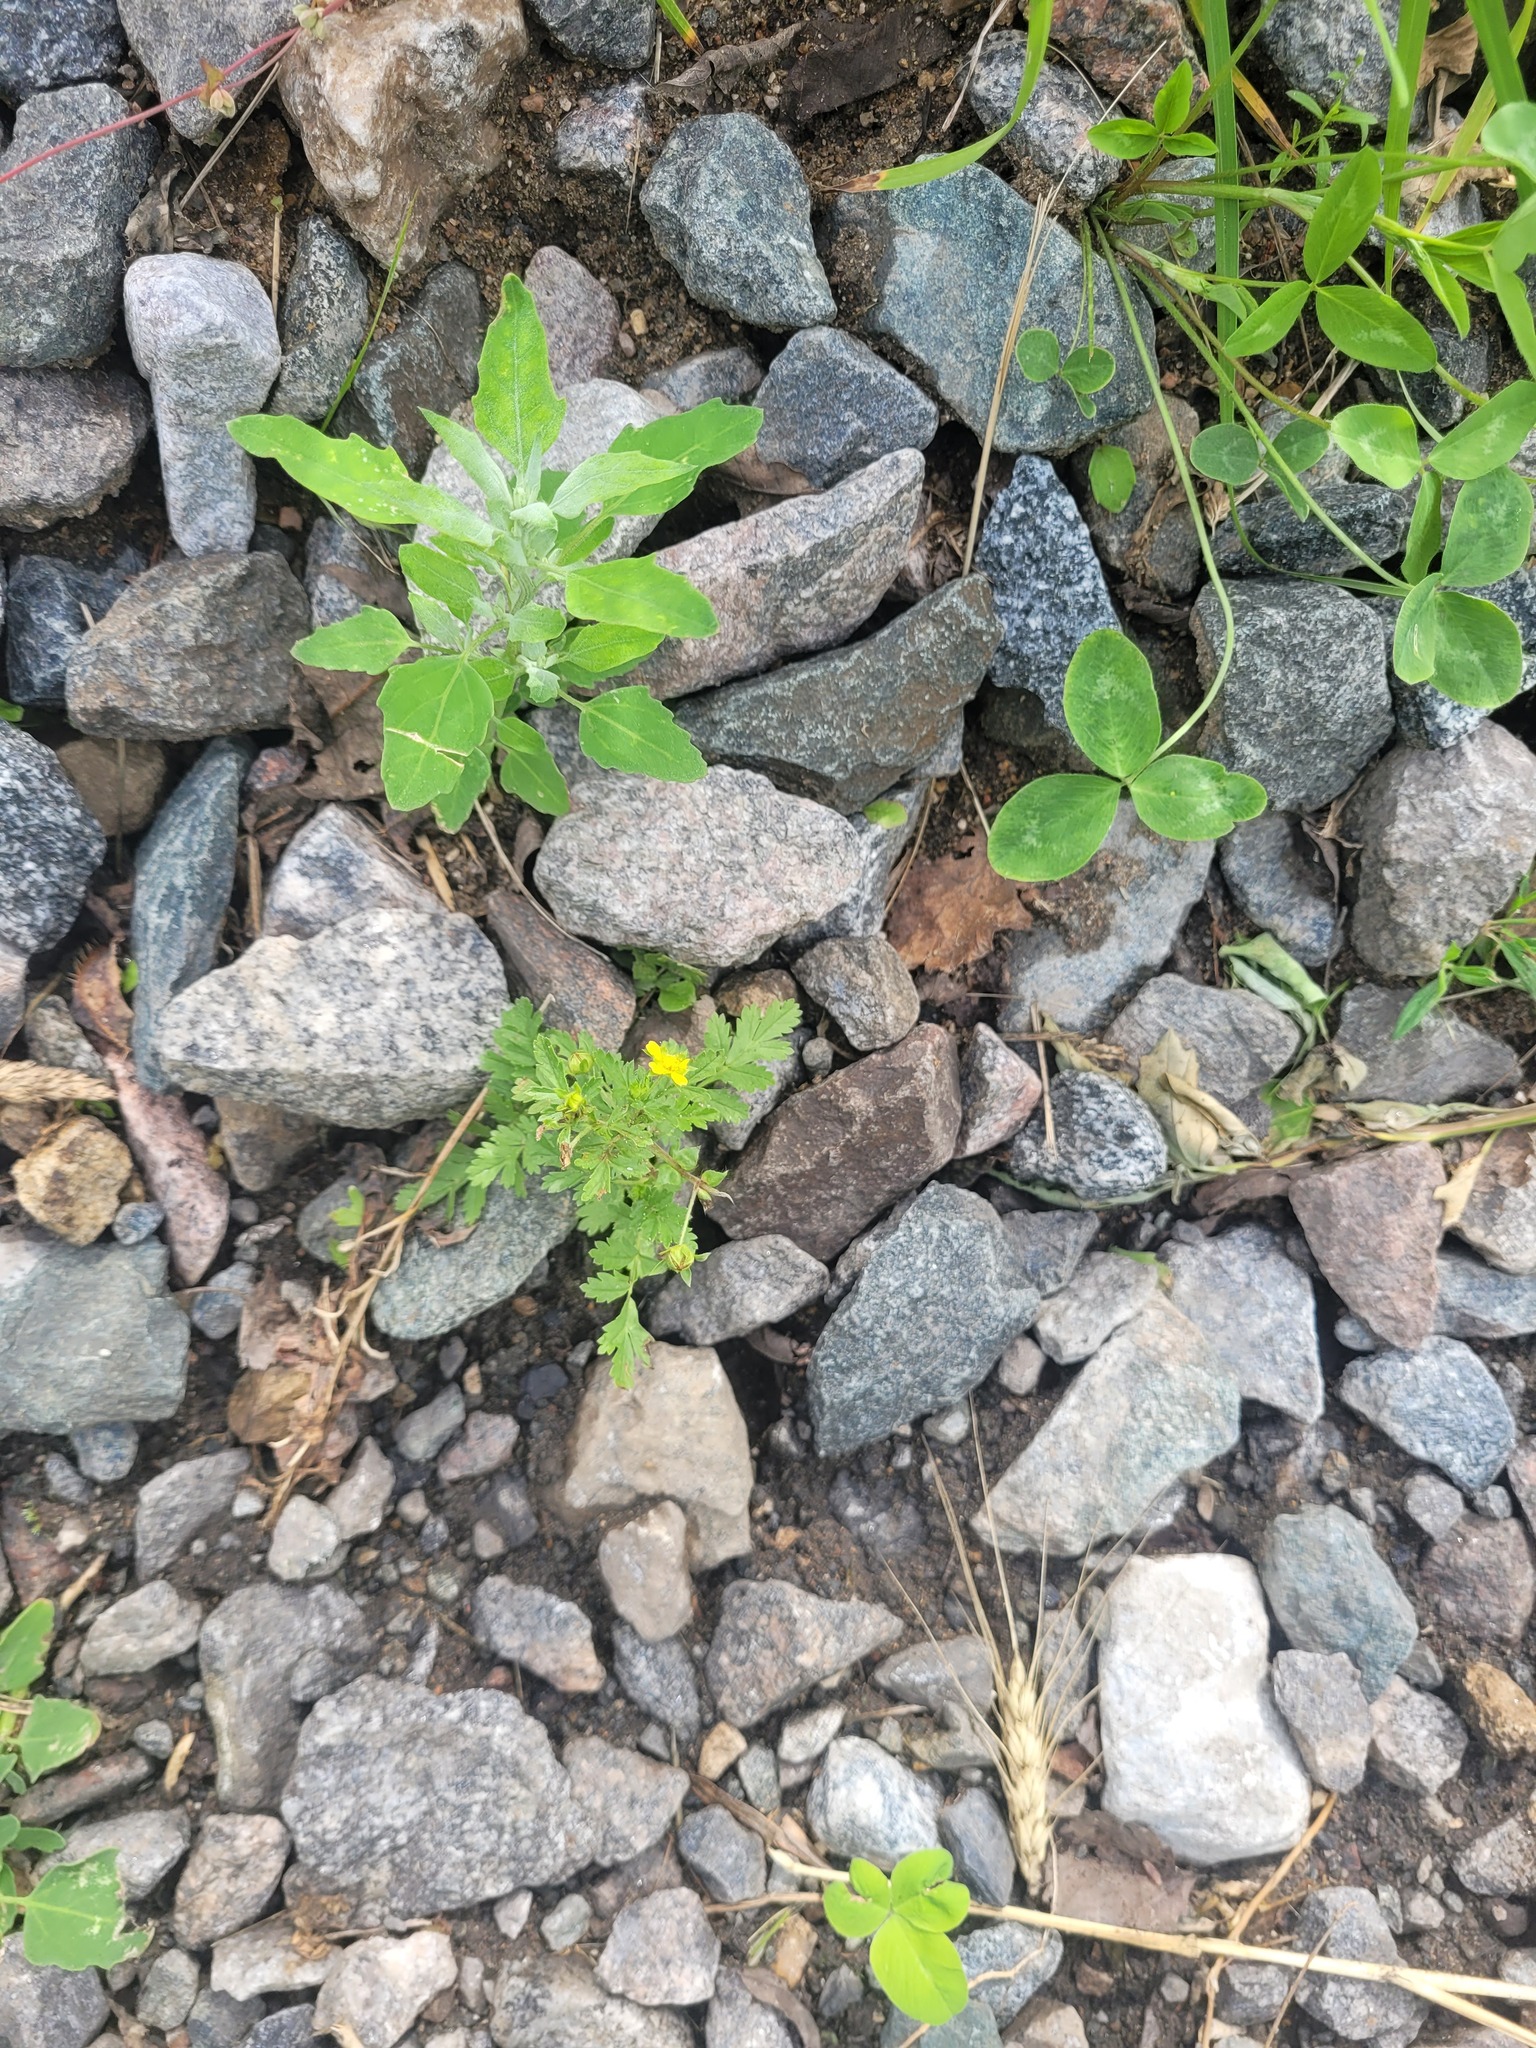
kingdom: Plantae
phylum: Tracheophyta
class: Magnoliopsida
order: Rosales
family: Rosaceae
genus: Potentilla
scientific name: Potentilla supina
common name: Prostrate cinquefoil
